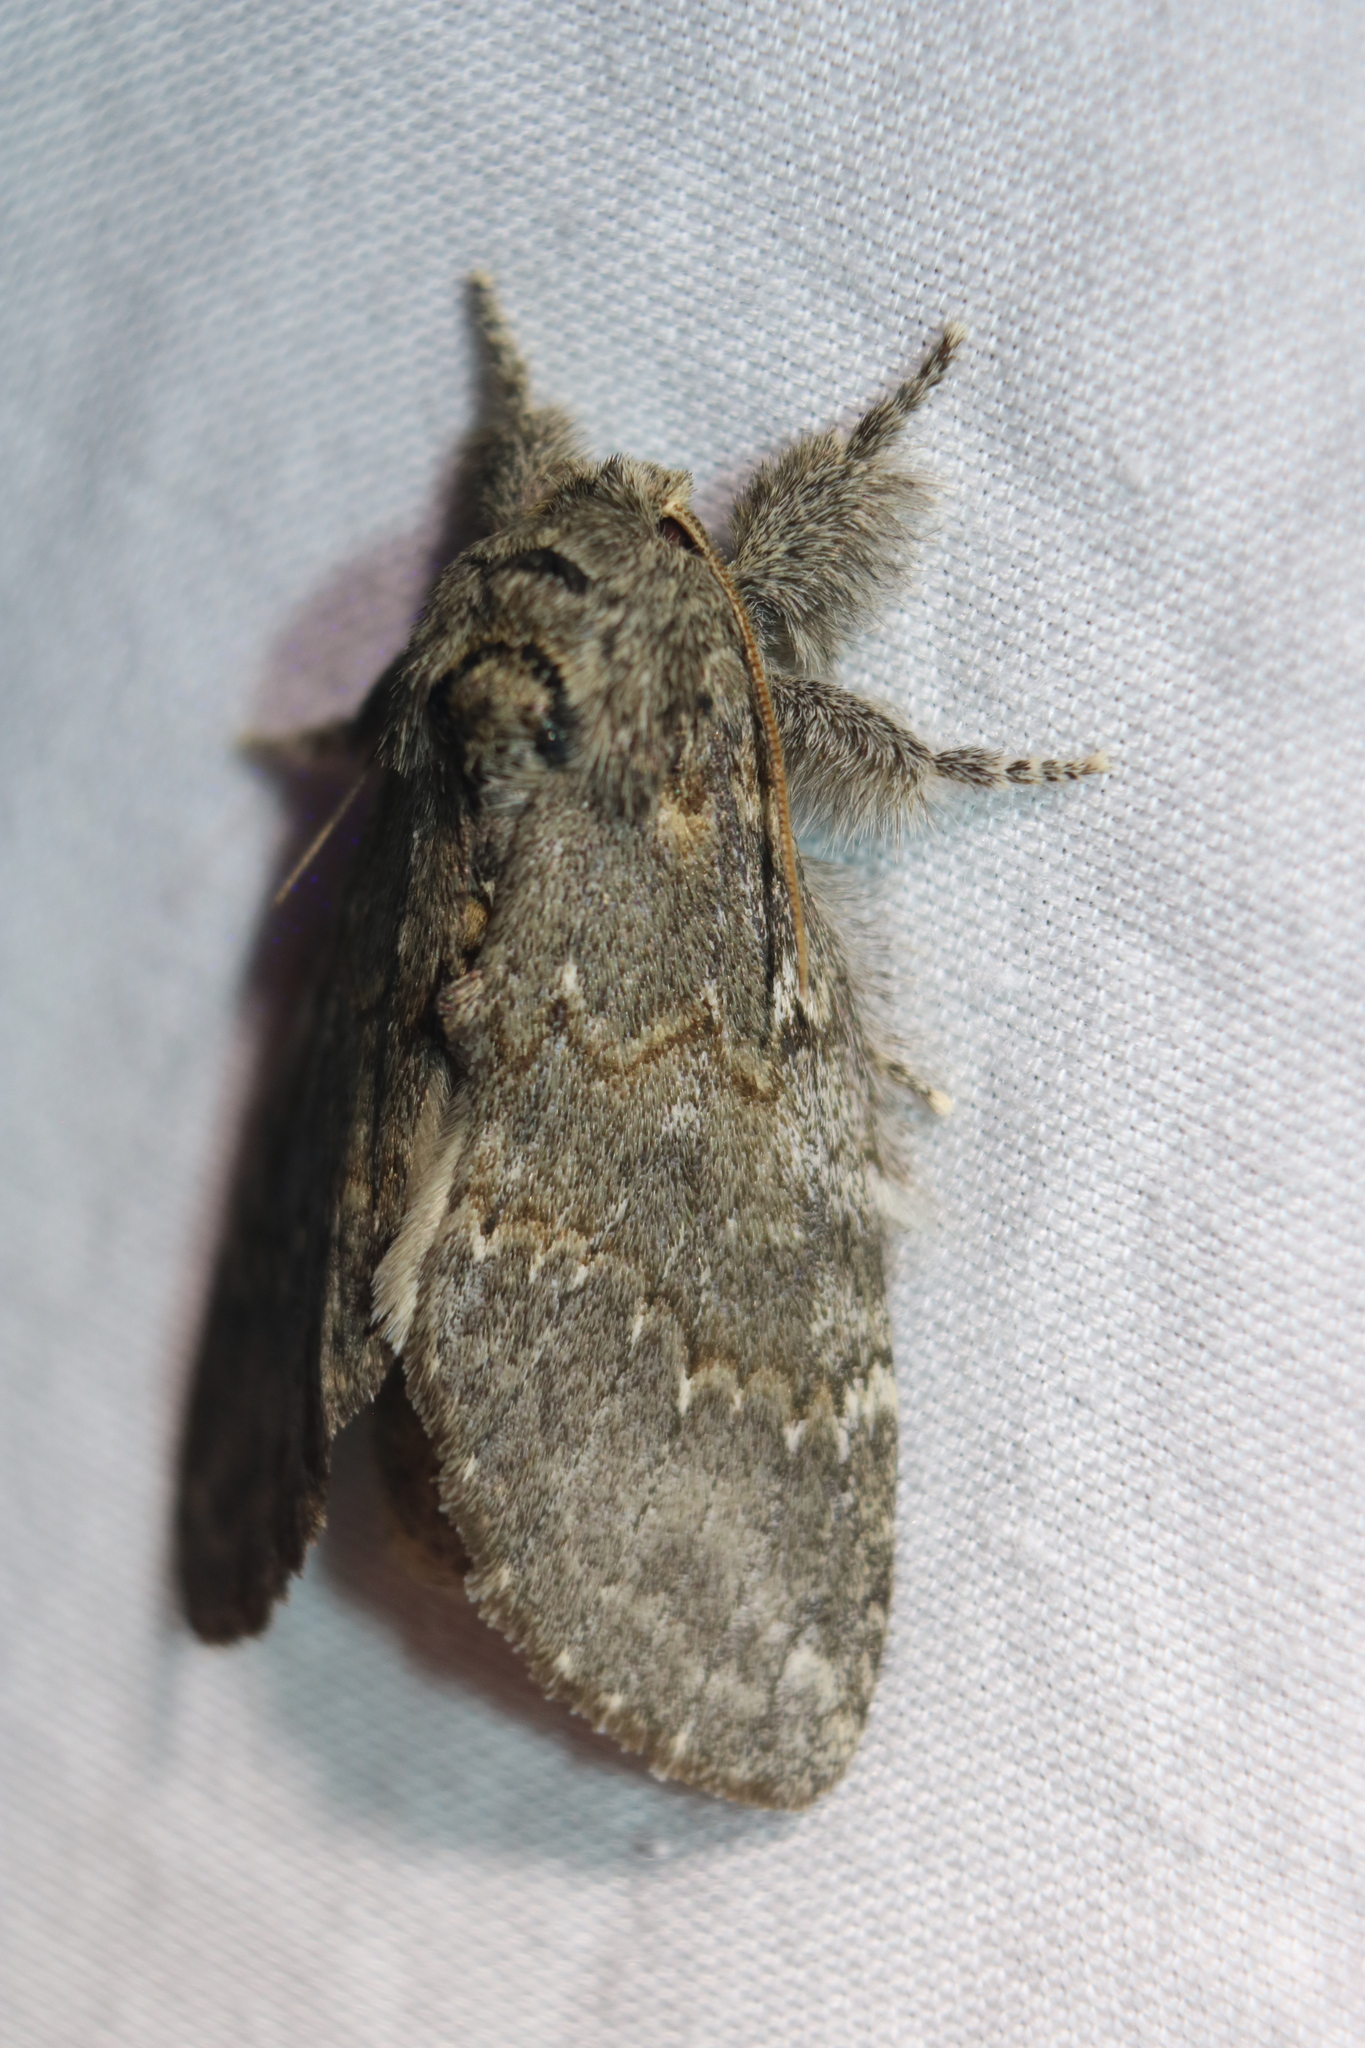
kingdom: Animalia
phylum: Arthropoda
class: Insecta
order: Lepidoptera
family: Notodontidae
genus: Peridea
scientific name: Peridea angulosa
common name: Angulose prominent
